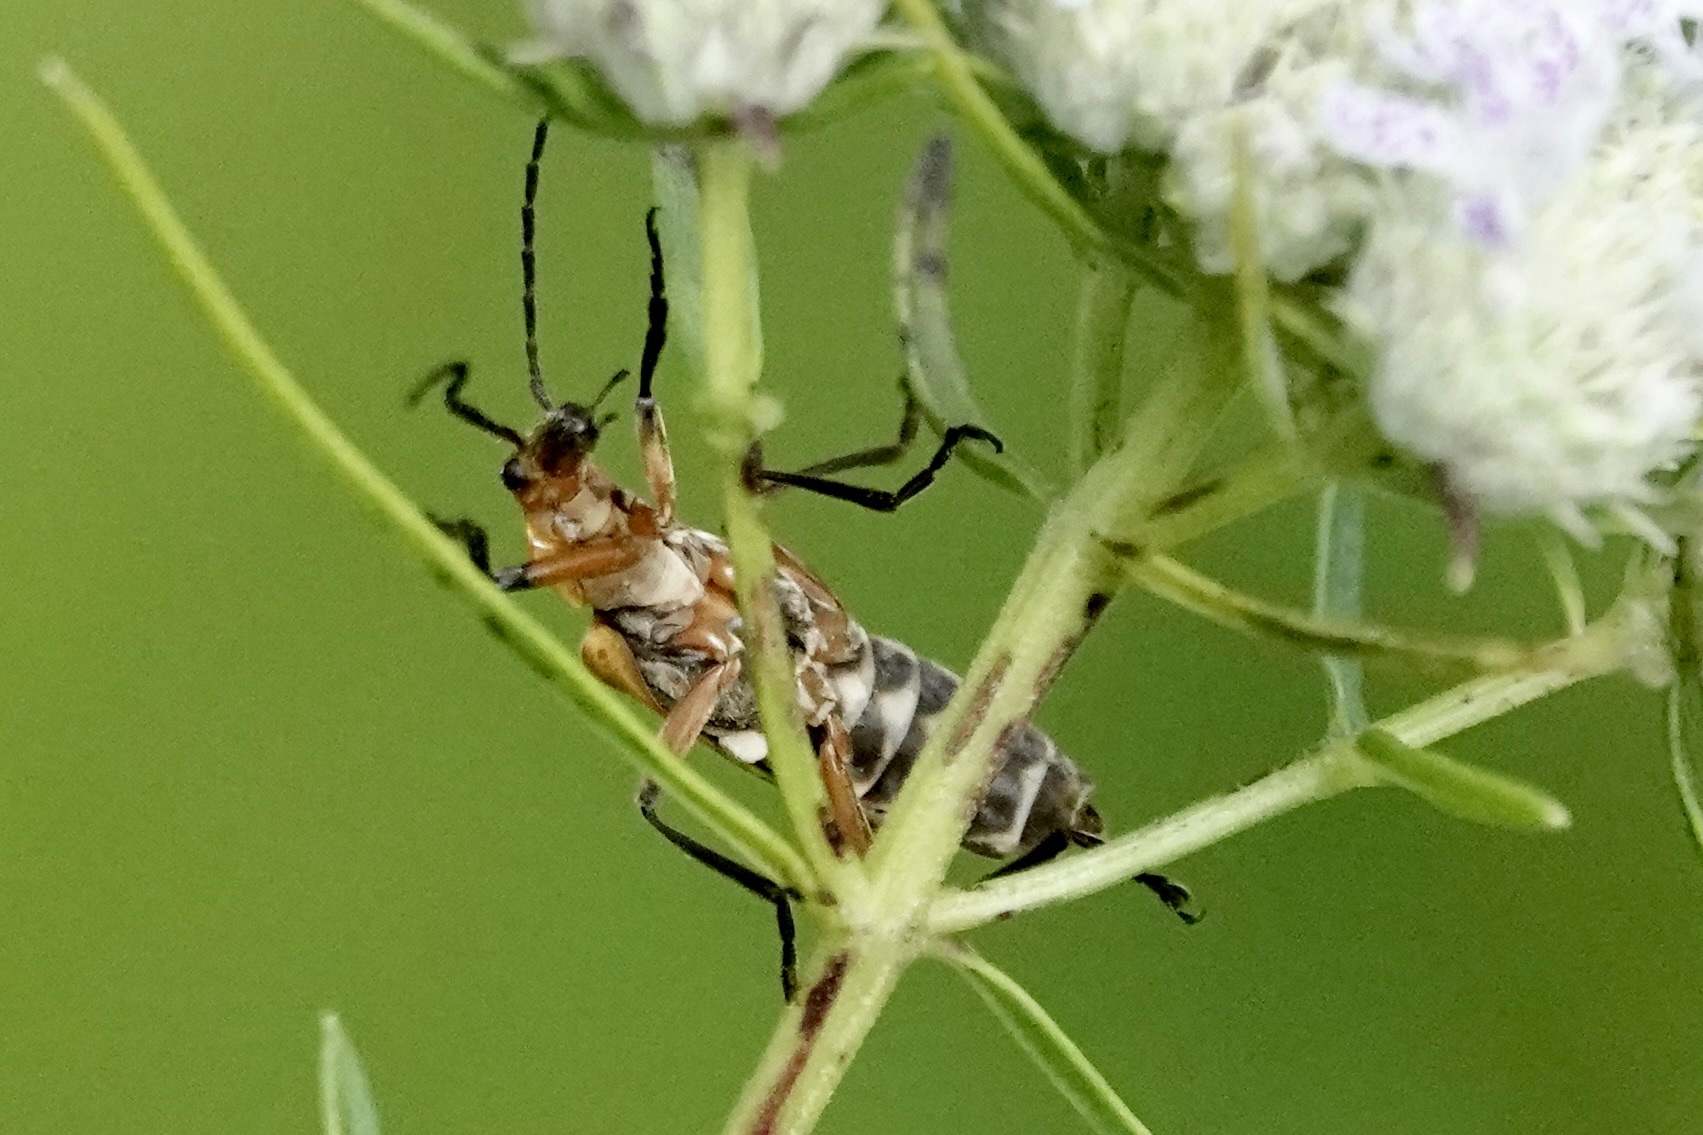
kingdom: Animalia
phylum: Arthropoda
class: Insecta
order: Coleoptera
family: Cantharidae
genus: Chauliognathus
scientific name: Chauliognathus marginatus
